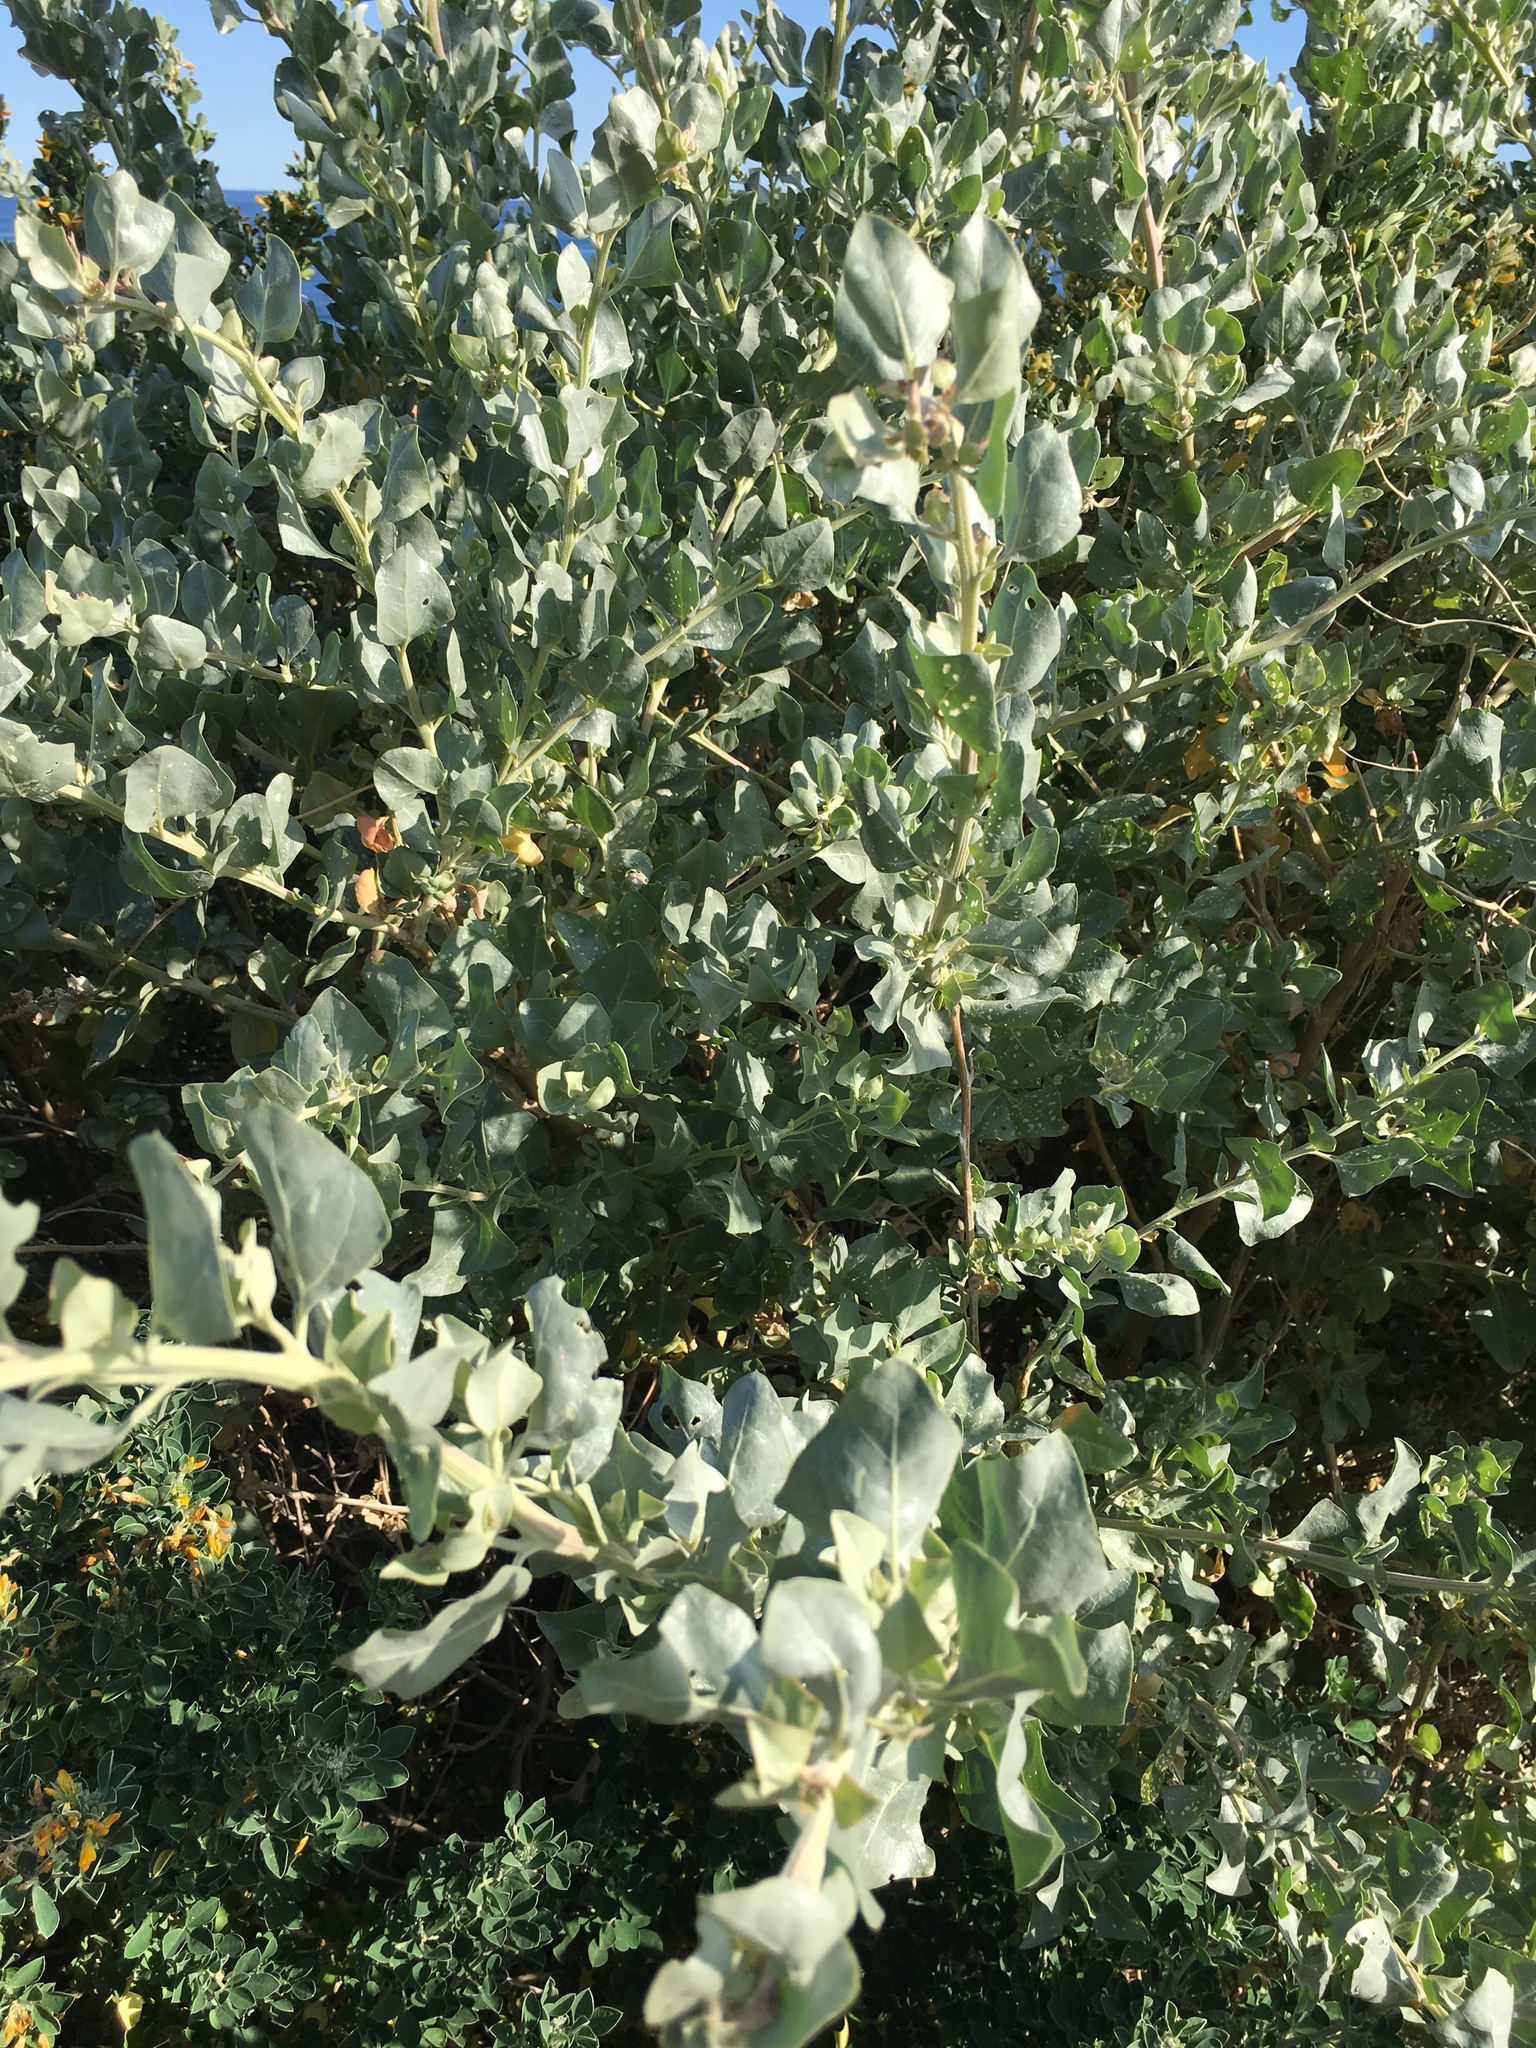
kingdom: Plantae
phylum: Tracheophyta
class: Magnoliopsida
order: Caryophyllales
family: Amaranthaceae
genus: Atriplex
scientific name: Atriplex halimus
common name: Shrubby orache
